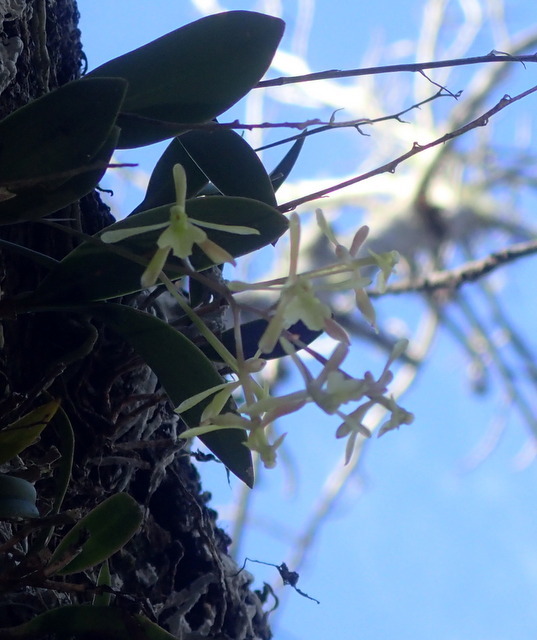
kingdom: Plantae
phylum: Tracheophyta
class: Liliopsida
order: Asparagales
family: Orchidaceae
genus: Epidendrum
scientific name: Epidendrum conopseum
